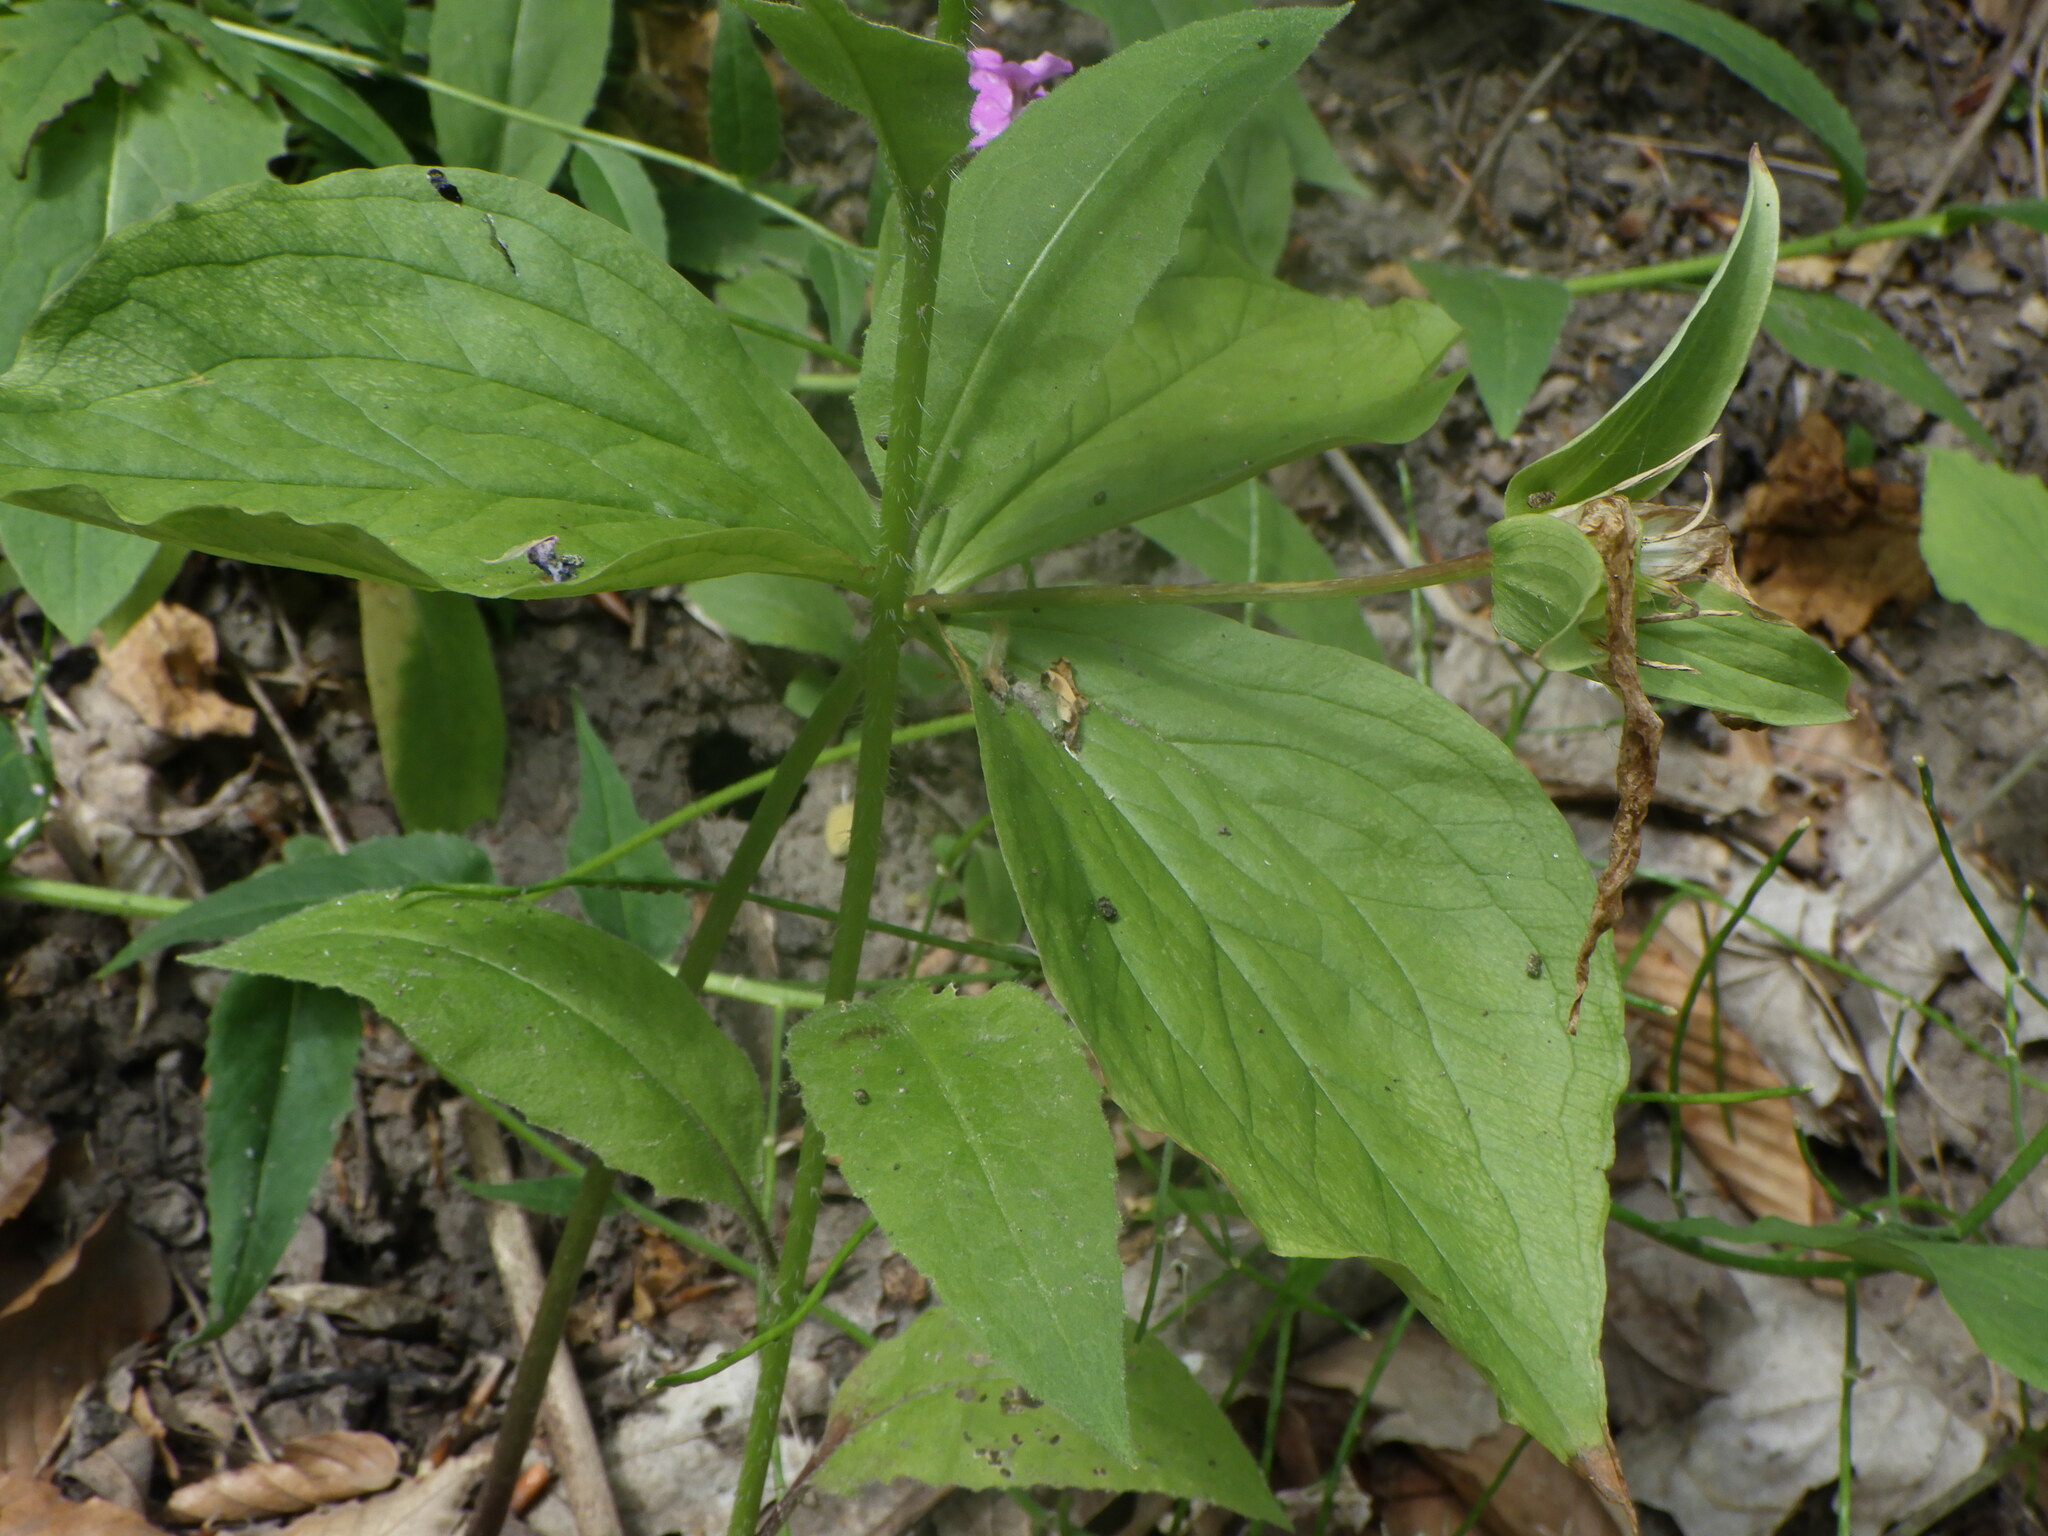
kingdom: Plantae
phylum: Tracheophyta
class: Liliopsida
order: Liliales
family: Melanthiaceae
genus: Trillium
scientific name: Trillium grandiflorum
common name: Great white trillium
